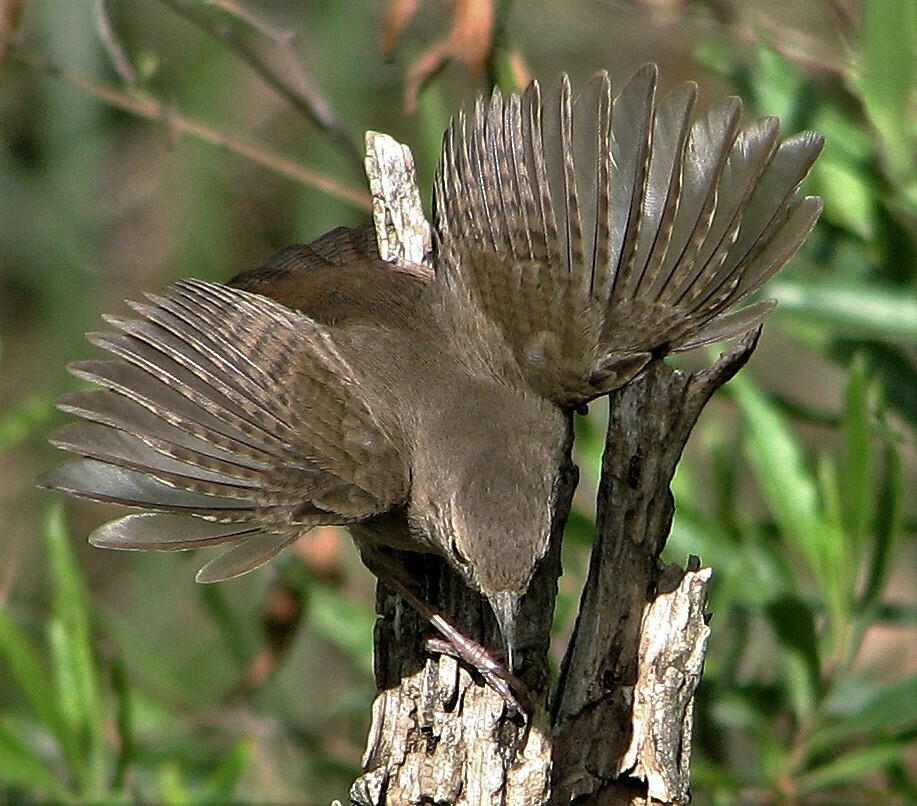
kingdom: Animalia
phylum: Chordata
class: Aves
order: Passeriformes
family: Troglodytidae
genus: Troglodytes
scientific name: Troglodytes aedon
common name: House wren
